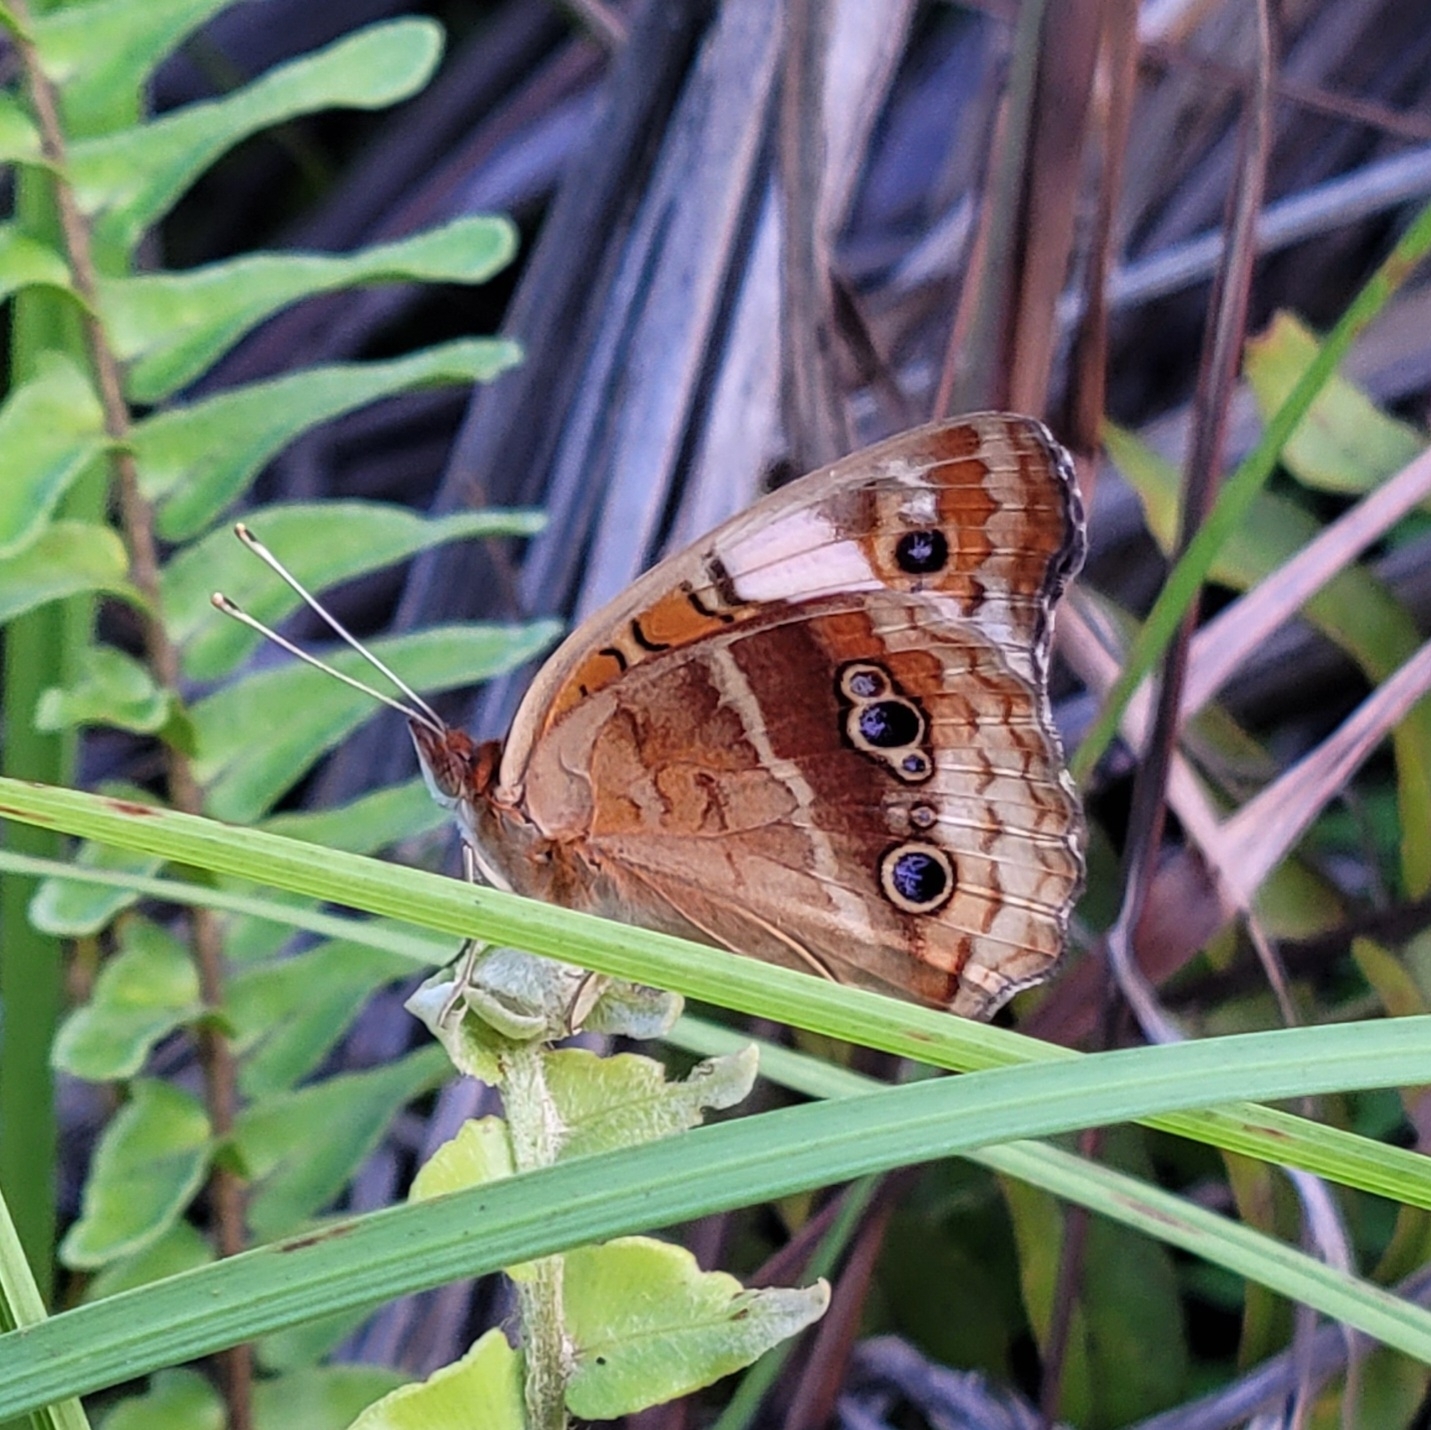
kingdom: Animalia
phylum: Arthropoda
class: Insecta
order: Lepidoptera
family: Nymphalidae
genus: Junonia
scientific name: Junonia lavinia
